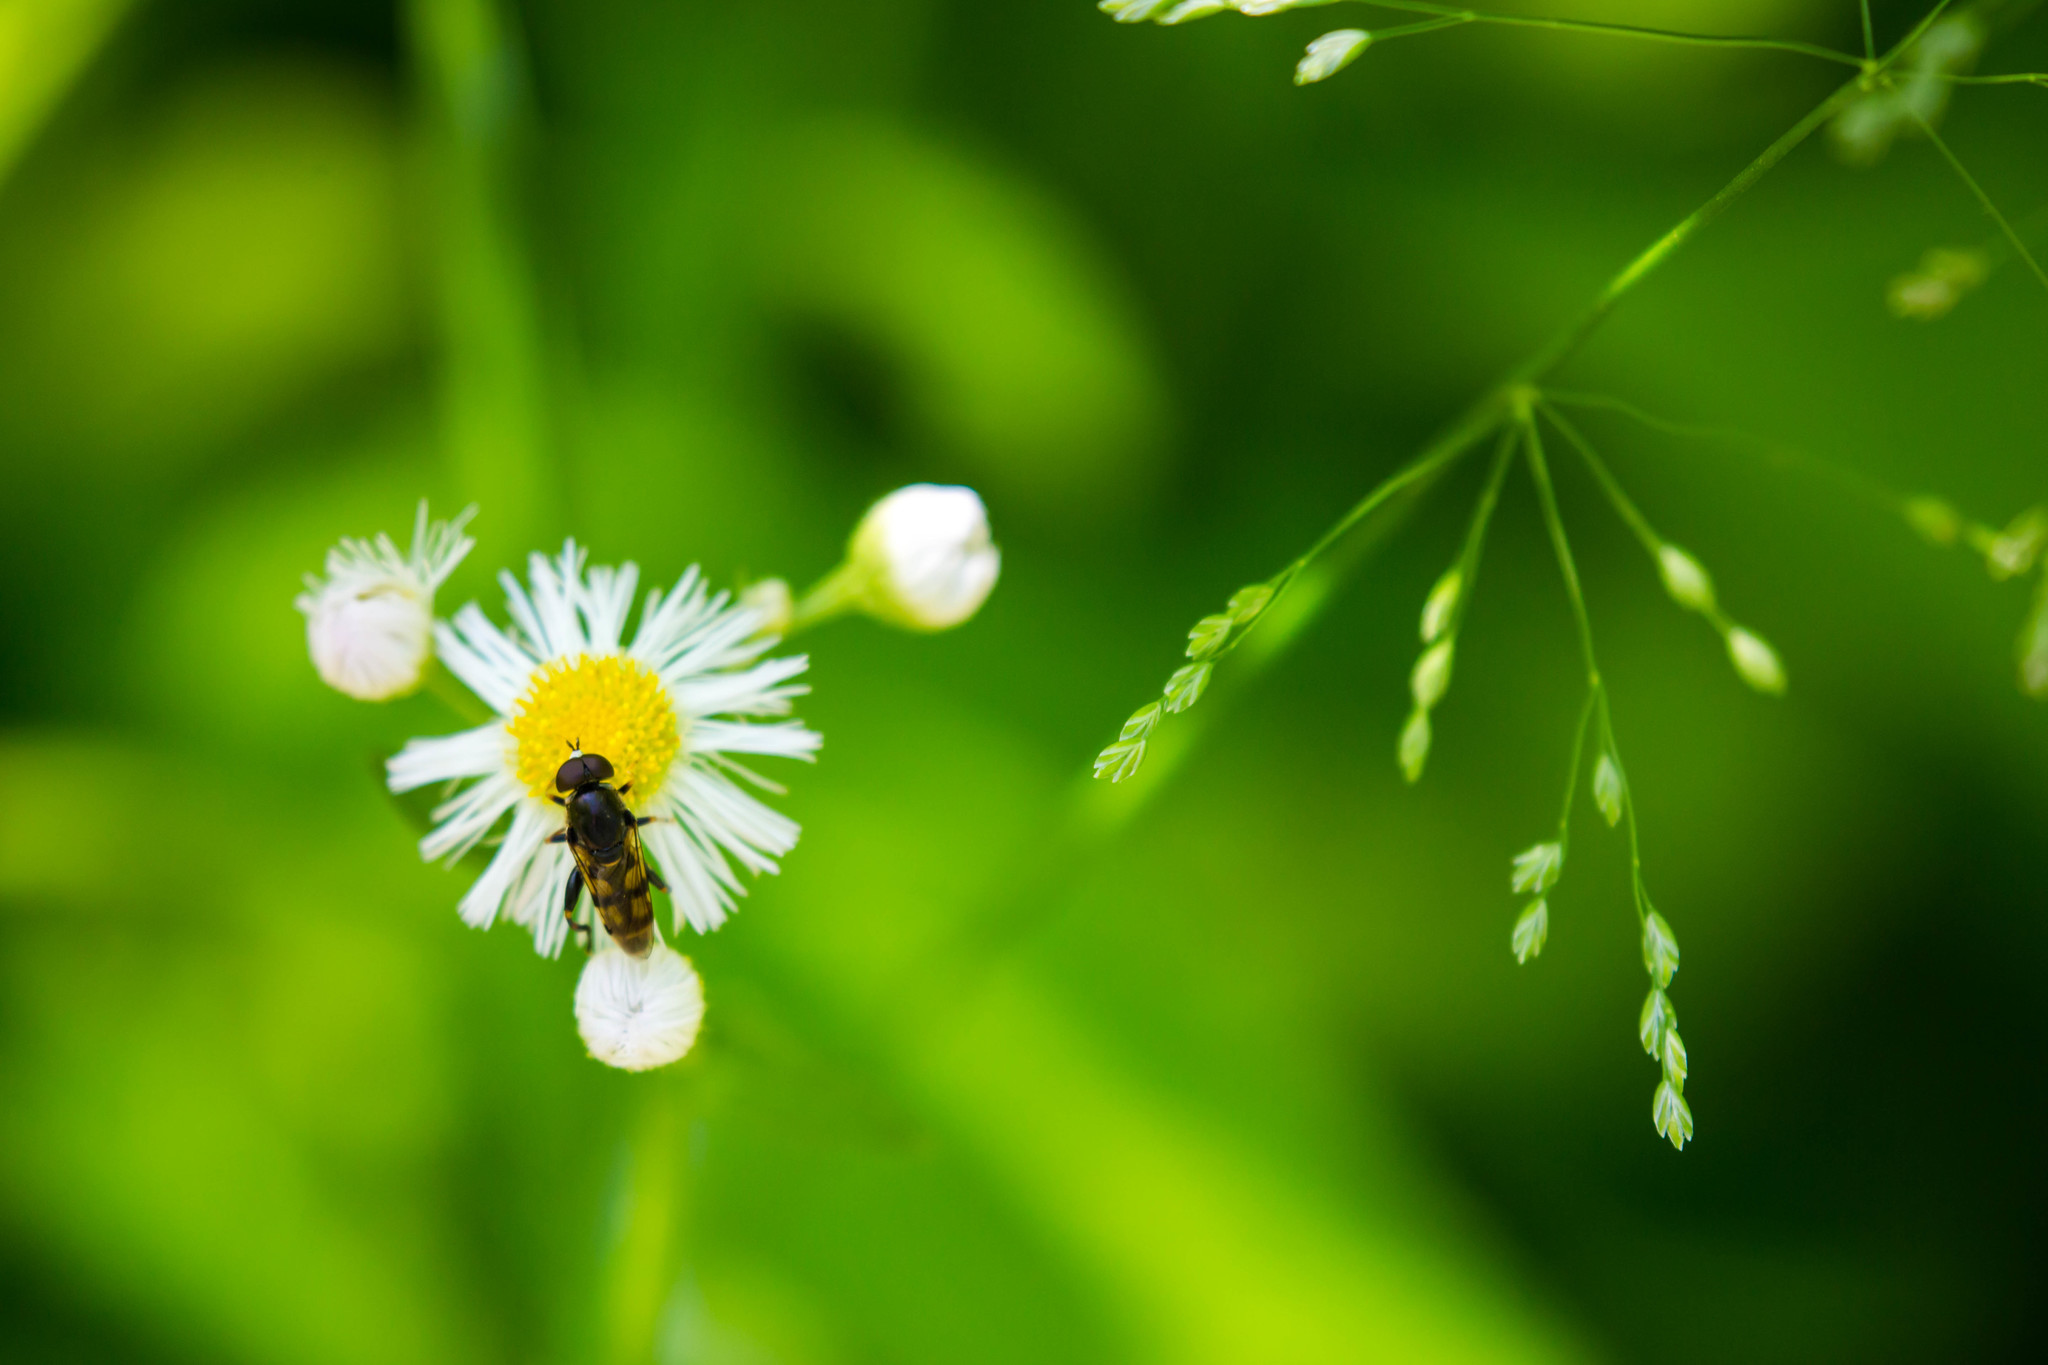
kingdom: Animalia
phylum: Arthropoda
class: Insecta
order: Diptera
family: Syrphidae
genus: Syritta
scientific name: Syritta pipiens
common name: Hover fly
